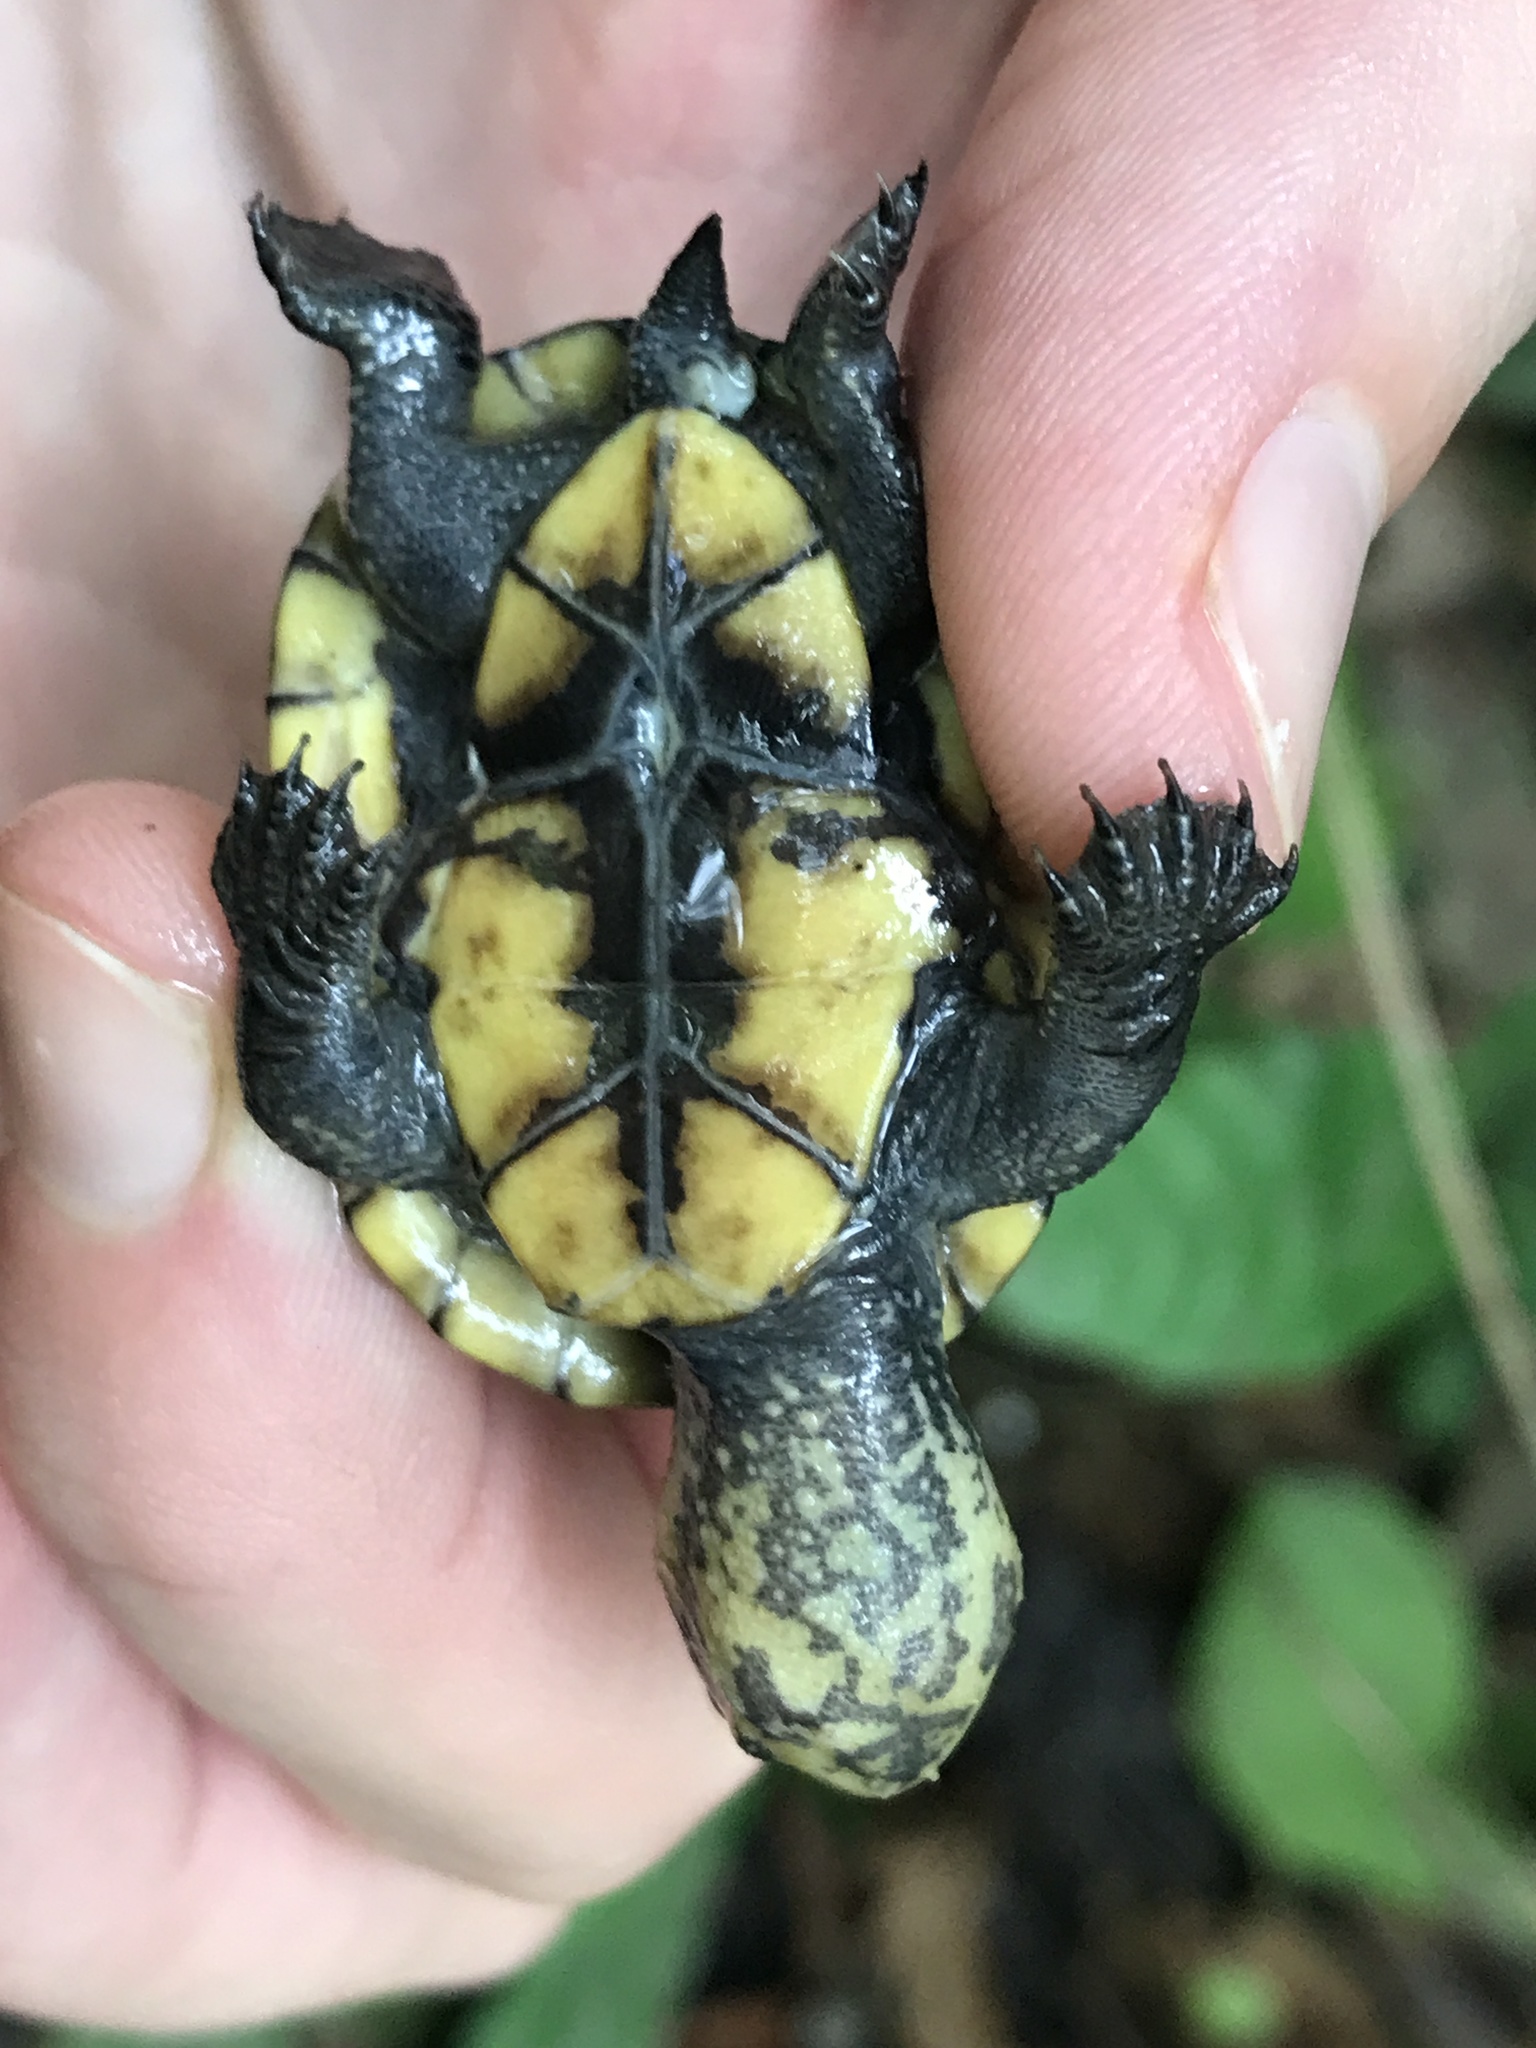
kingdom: Animalia
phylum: Chordata
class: Testudines
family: Kinosternidae
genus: Kinosternon
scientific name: Kinosternon leucostomum
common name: White-lipped mud turtle
